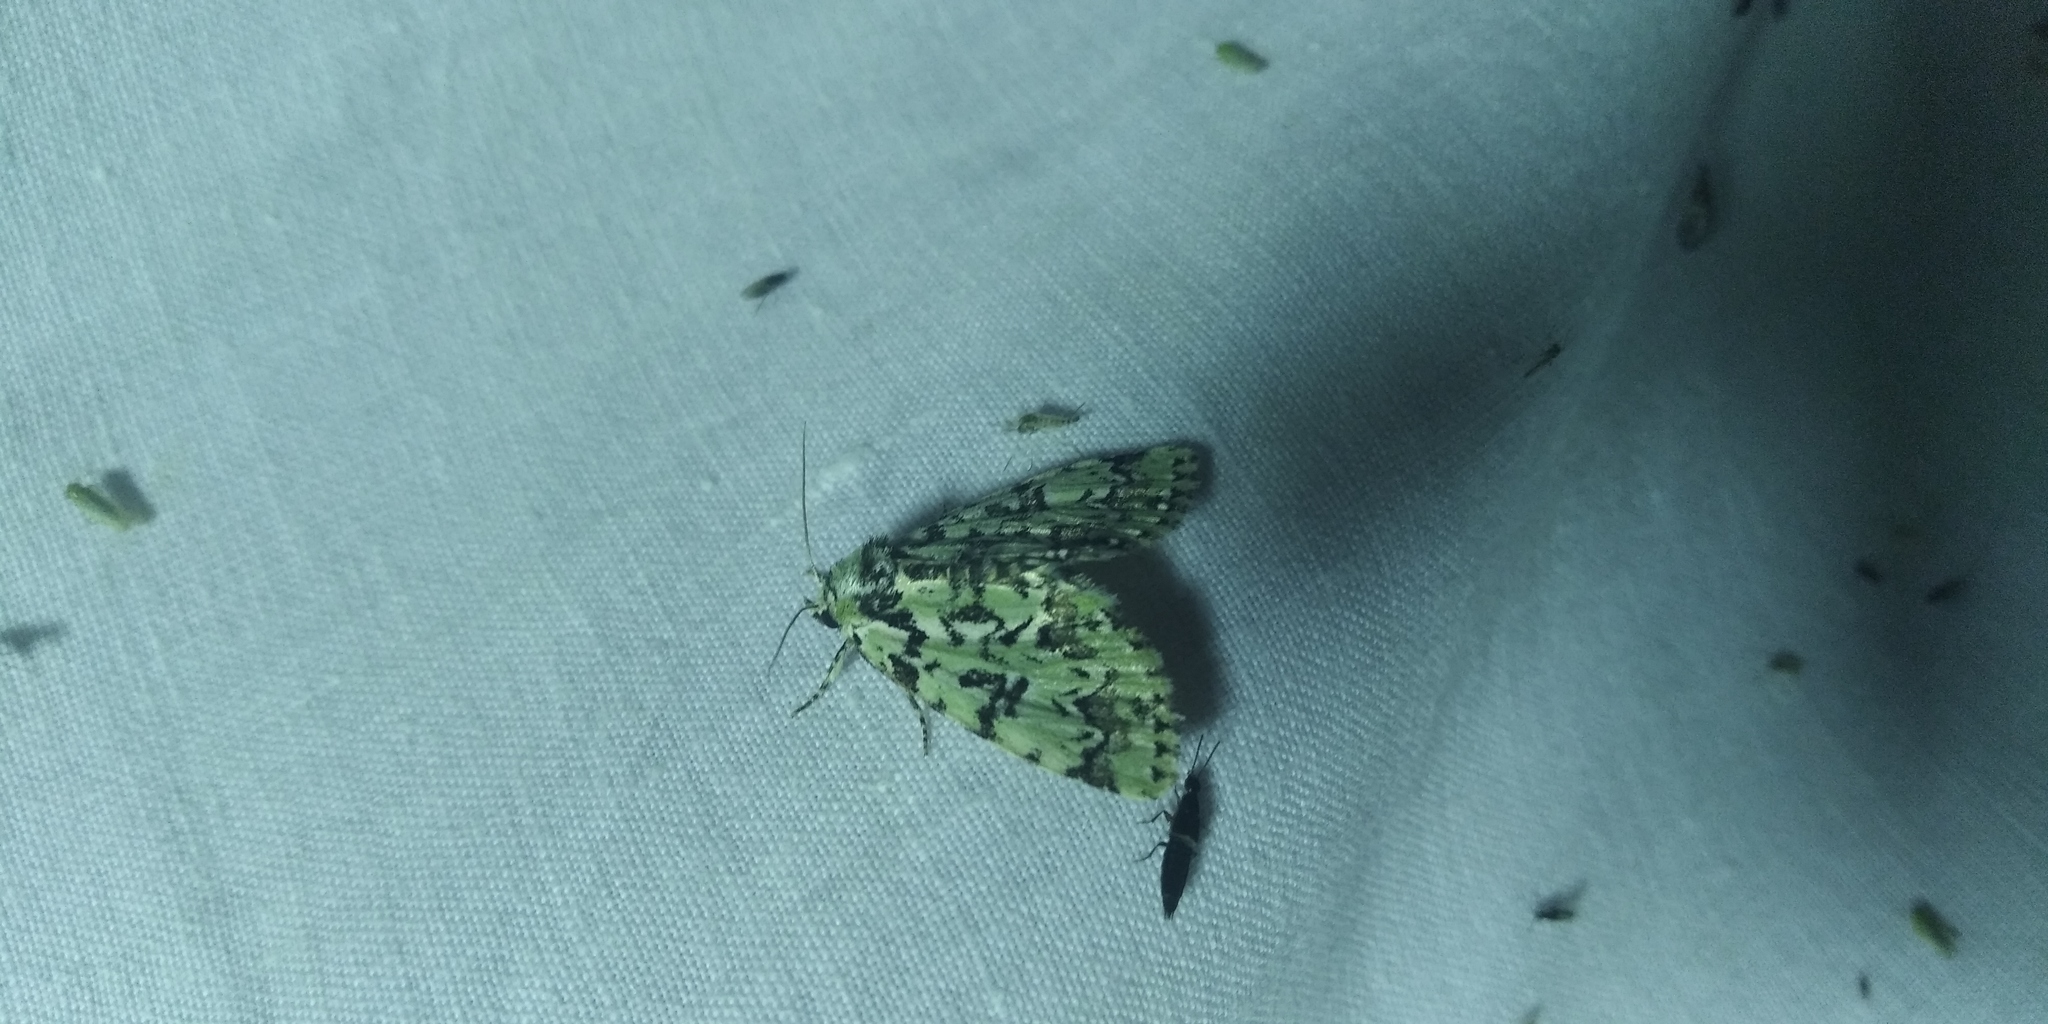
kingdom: Animalia
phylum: Arthropoda
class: Insecta
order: Lepidoptera
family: Noctuidae
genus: Moma
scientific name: Moma alpium
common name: Scarce merveille du jour
